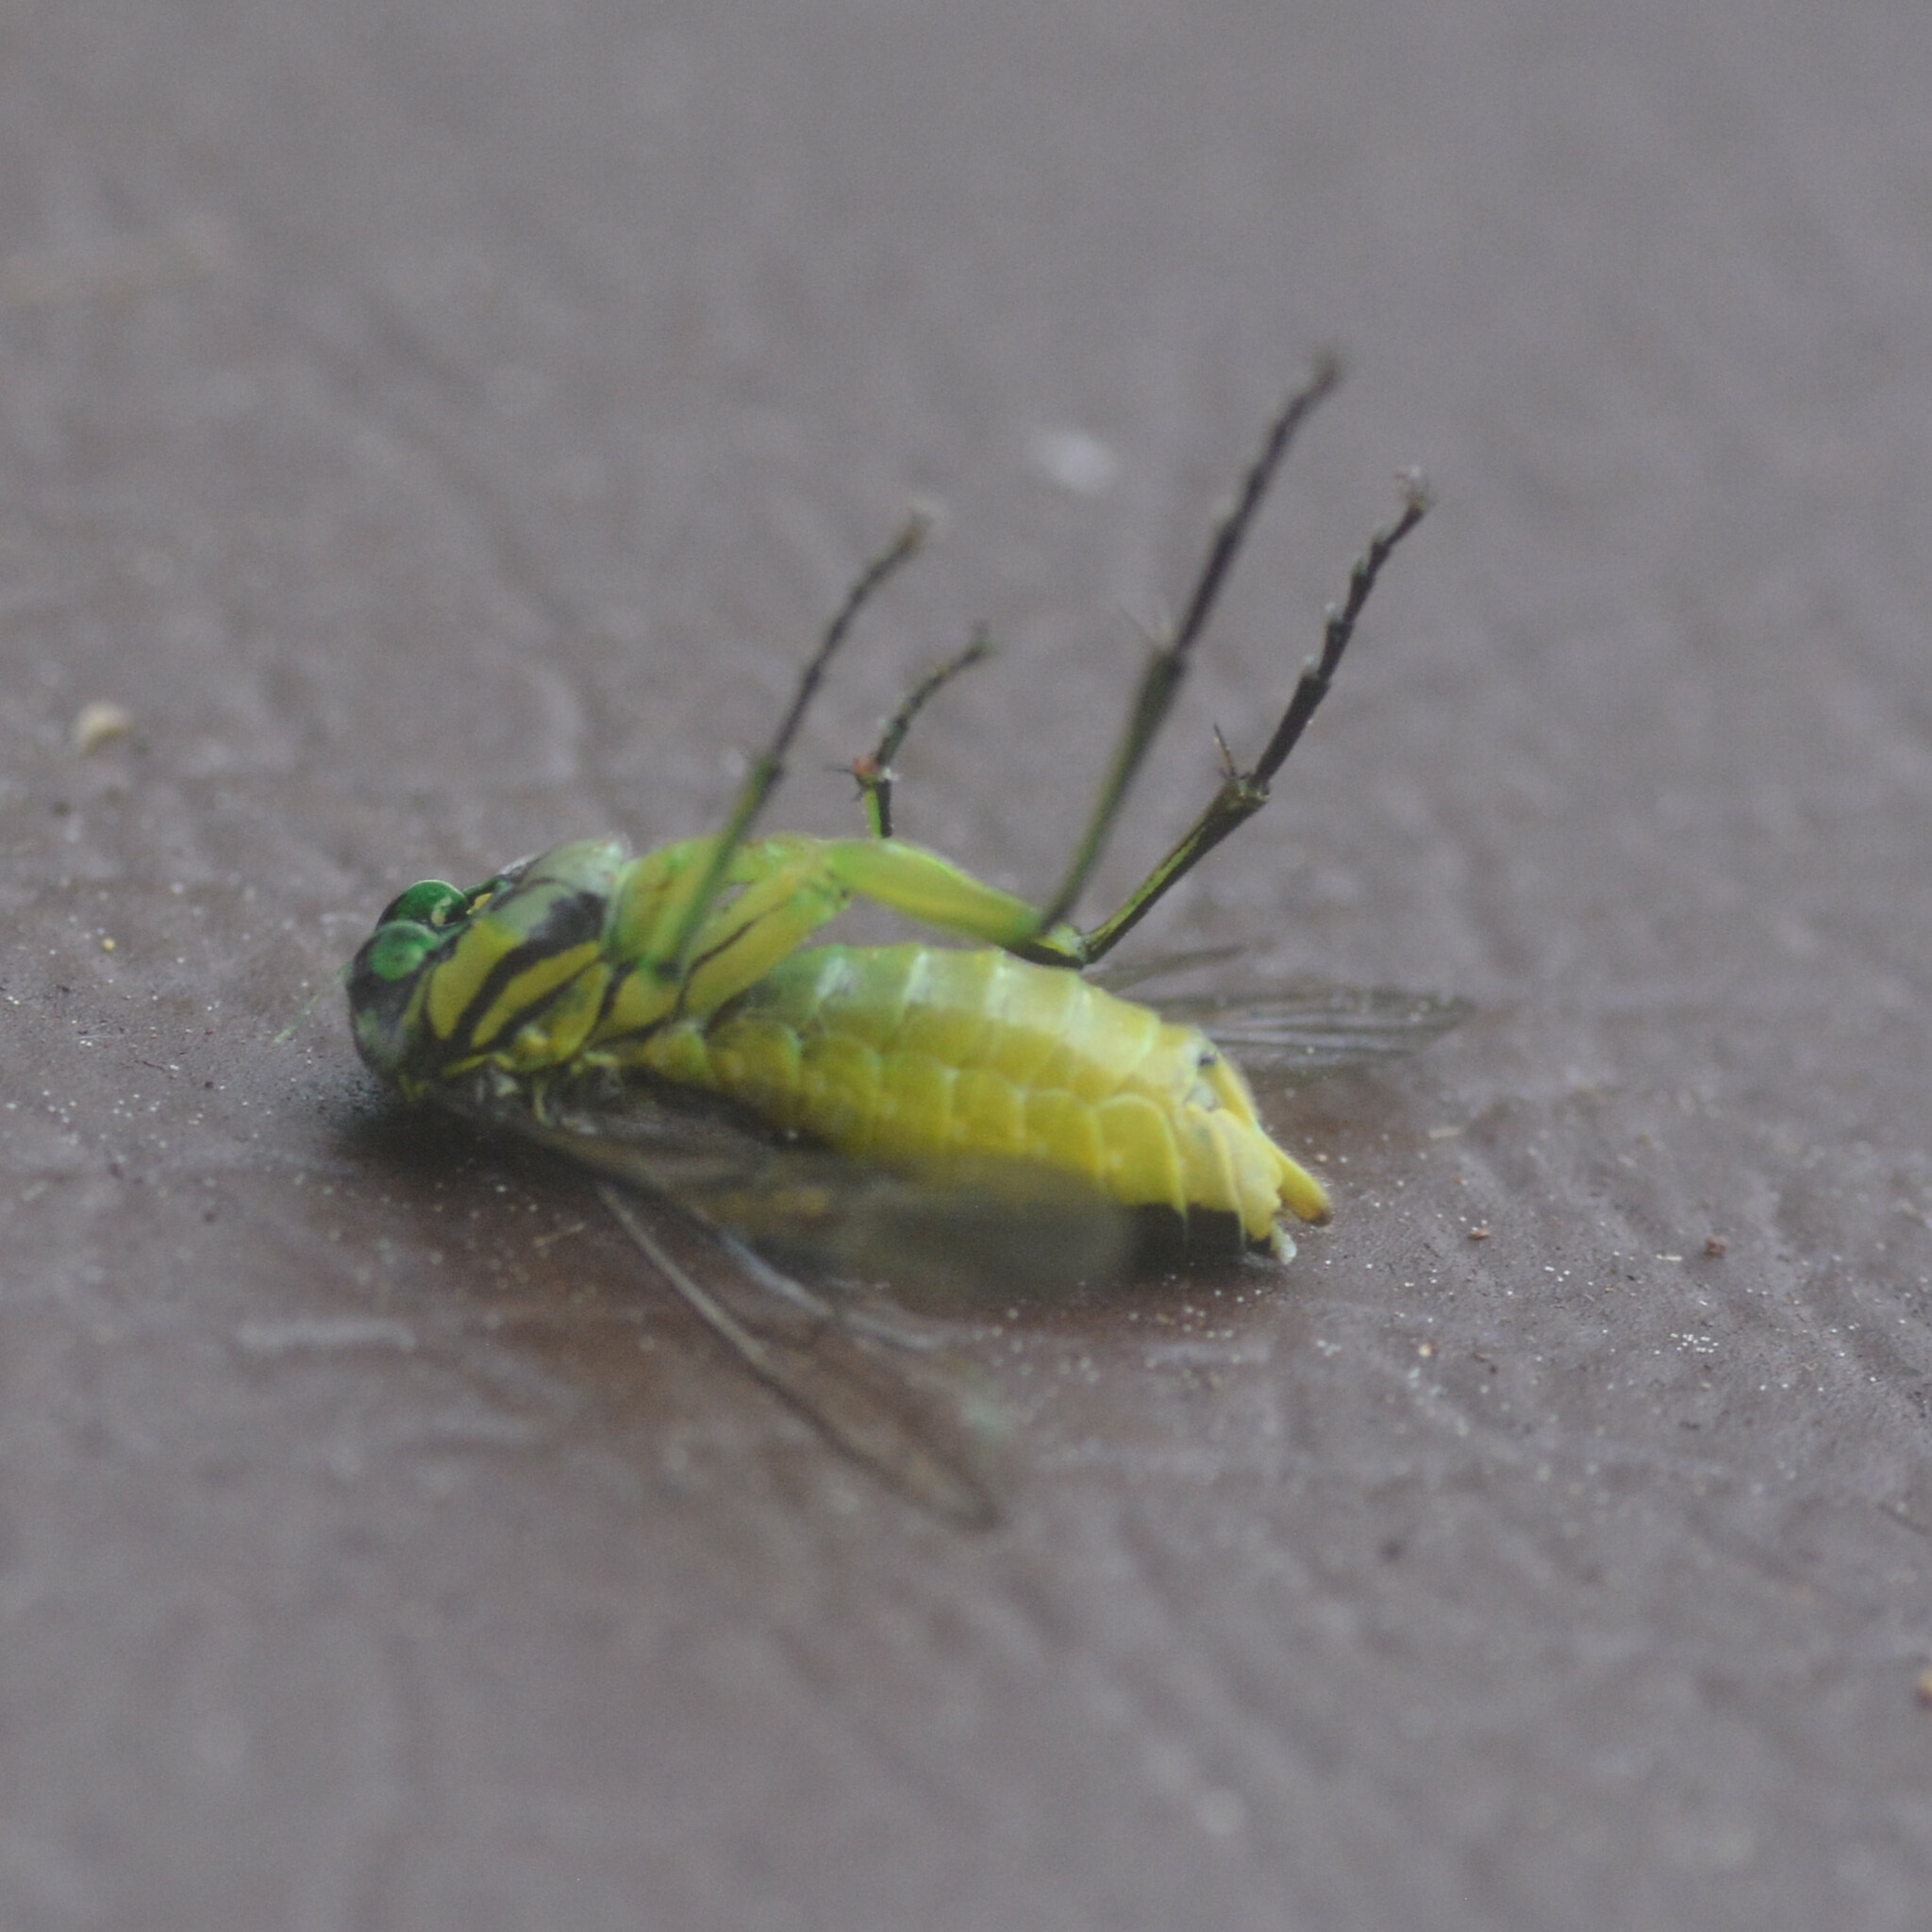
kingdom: Animalia
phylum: Arthropoda
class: Insecta
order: Hymenoptera
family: Tenthredinidae
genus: Tenthredo
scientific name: Tenthredo
